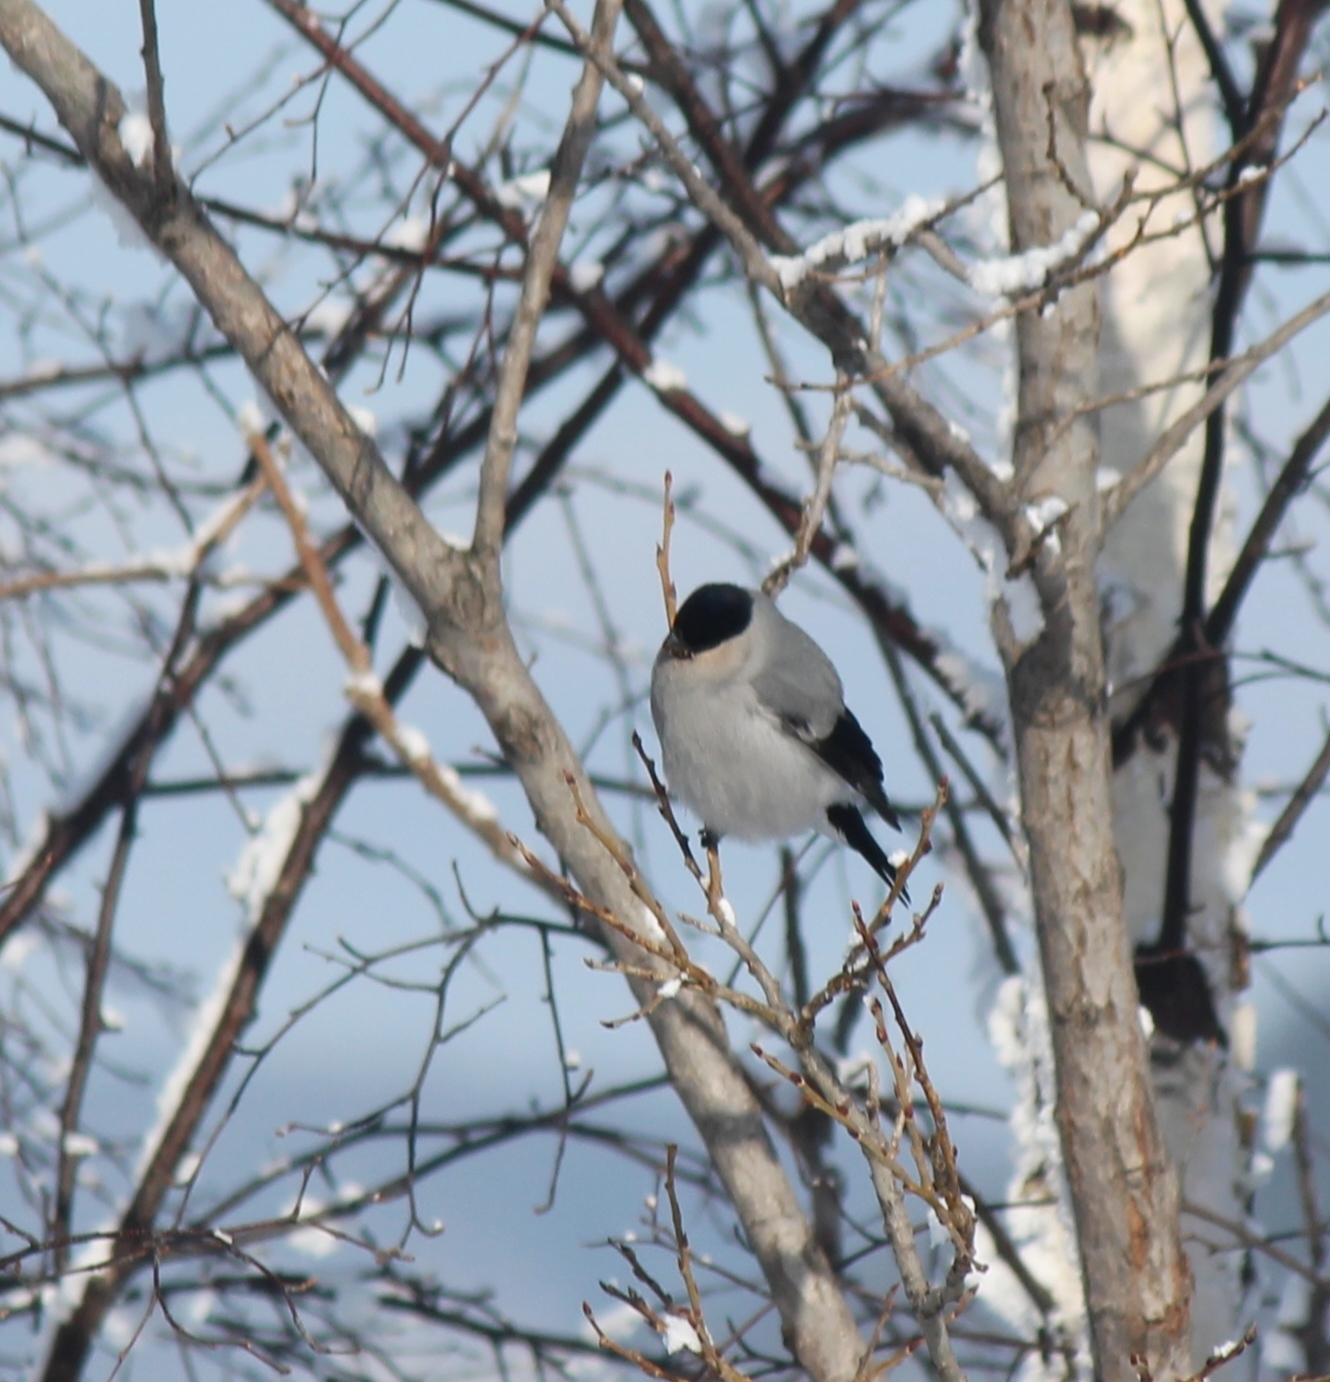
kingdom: Animalia
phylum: Chordata
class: Aves
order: Passeriformes
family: Fringillidae
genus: Pyrrhula
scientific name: Pyrrhula pyrrhula
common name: Eurasian bullfinch
